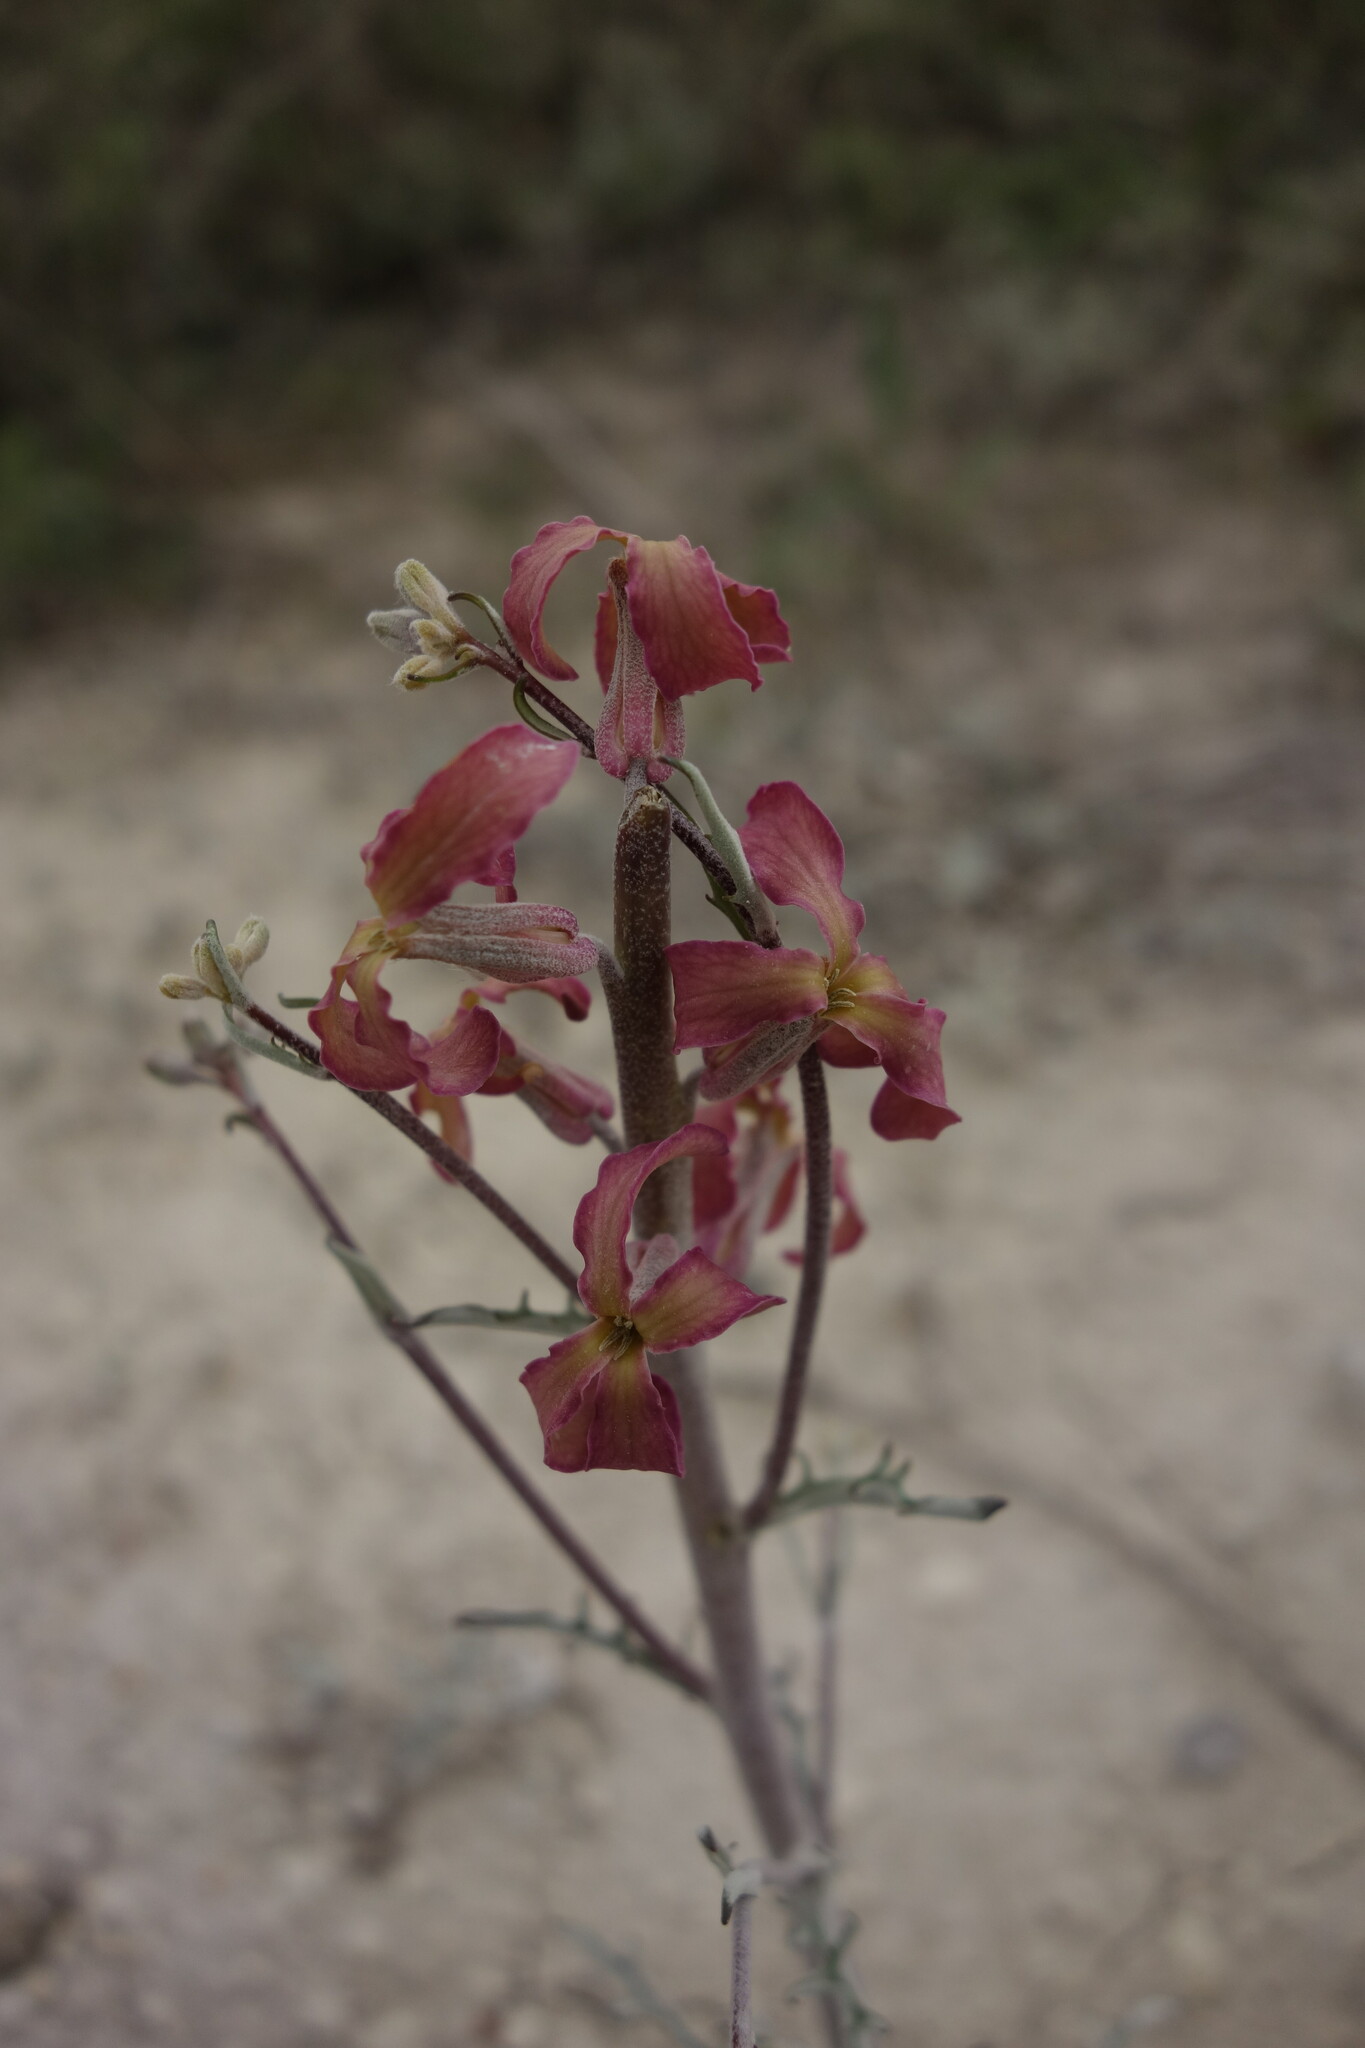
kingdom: Plantae
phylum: Tracheophyta
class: Magnoliopsida
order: Brassicales
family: Brassicaceae
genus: Matthiola
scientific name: Matthiola fragrans
